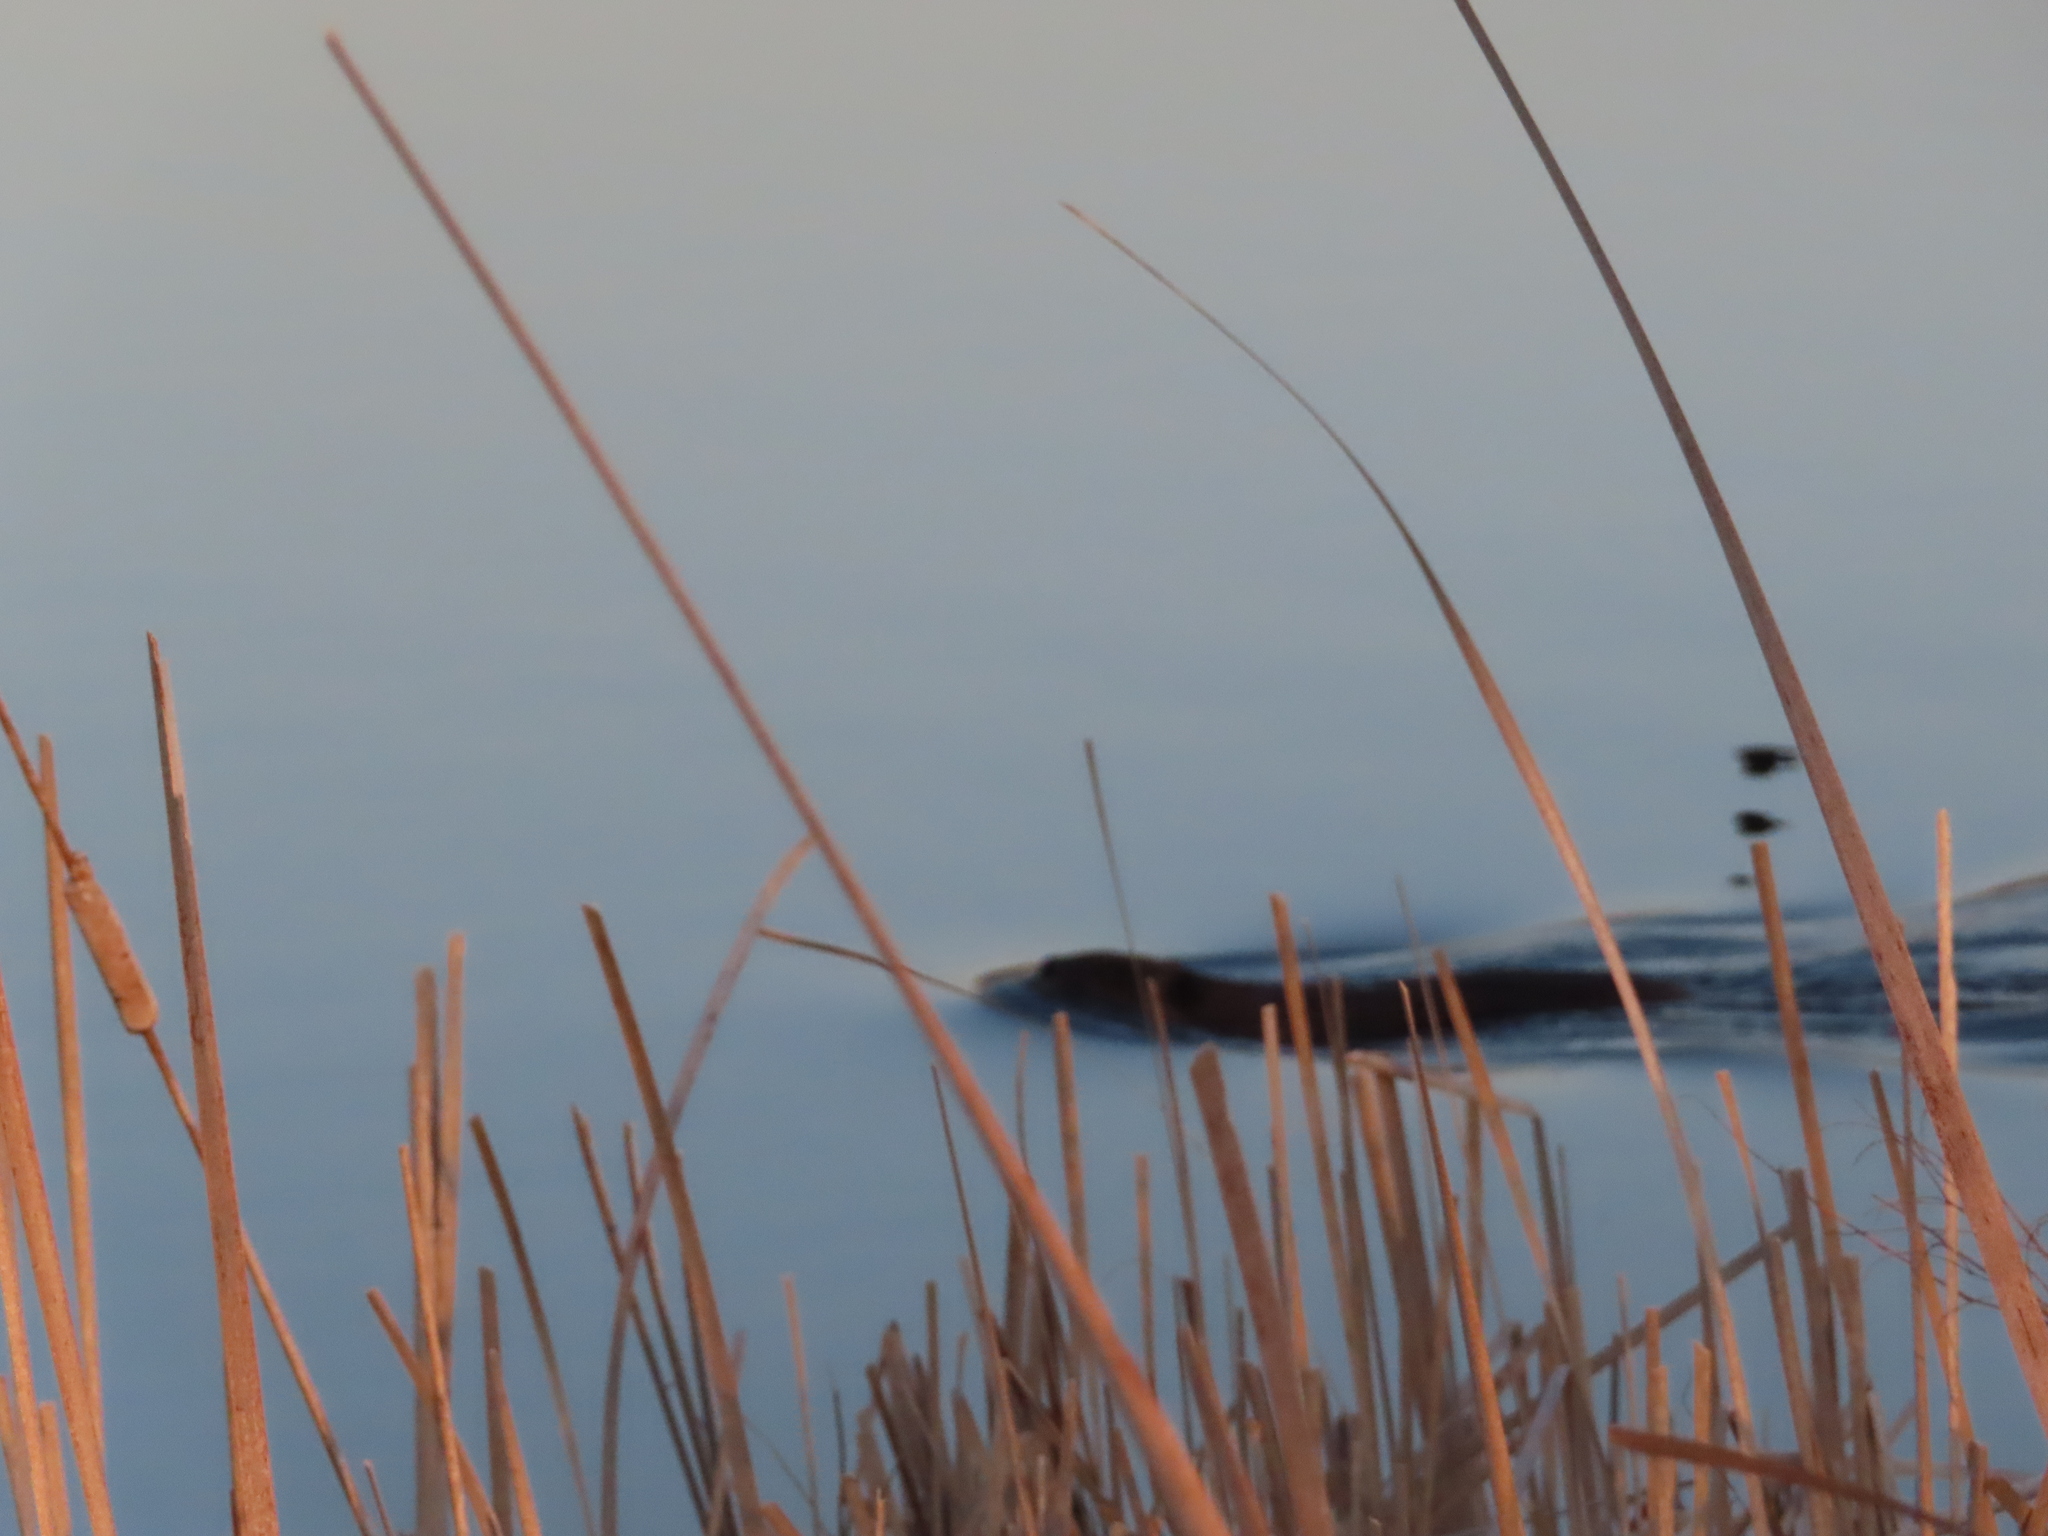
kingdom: Animalia
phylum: Chordata
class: Mammalia
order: Rodentia
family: Castoridae
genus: Castor
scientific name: Castor canadensis
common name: American beaver
